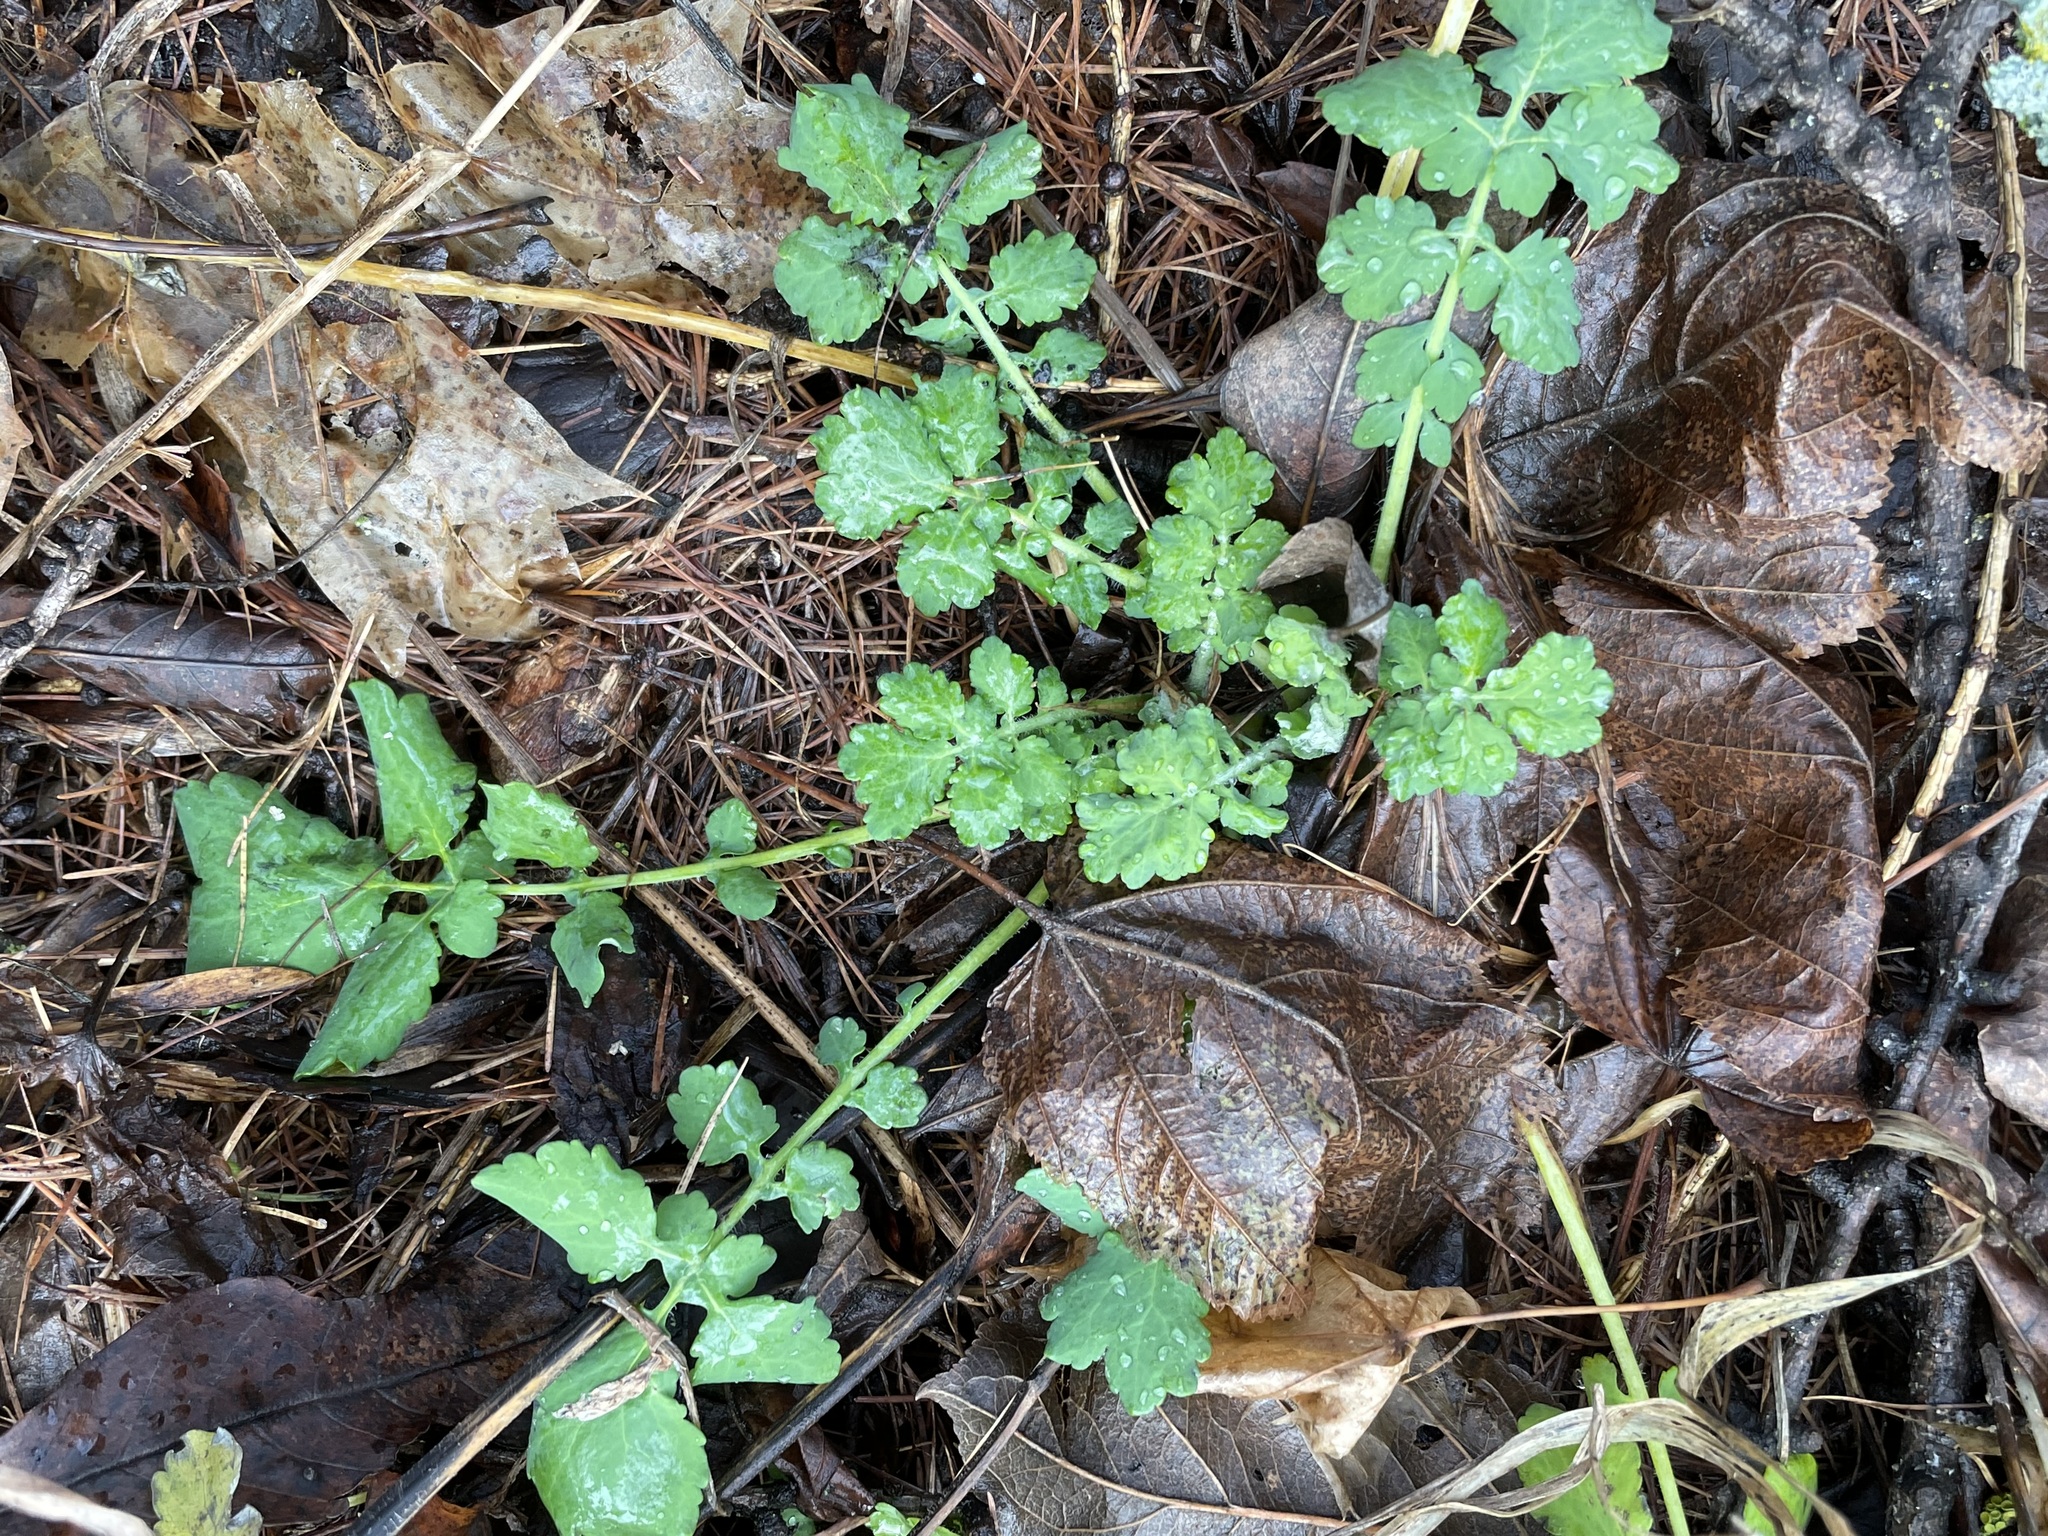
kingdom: Plantae
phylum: Tracheophyta
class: Magnoliopsida
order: Ranunculales
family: Papaveraceae
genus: Chelidonium
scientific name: Chelidonium majus
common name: Greater celandine
